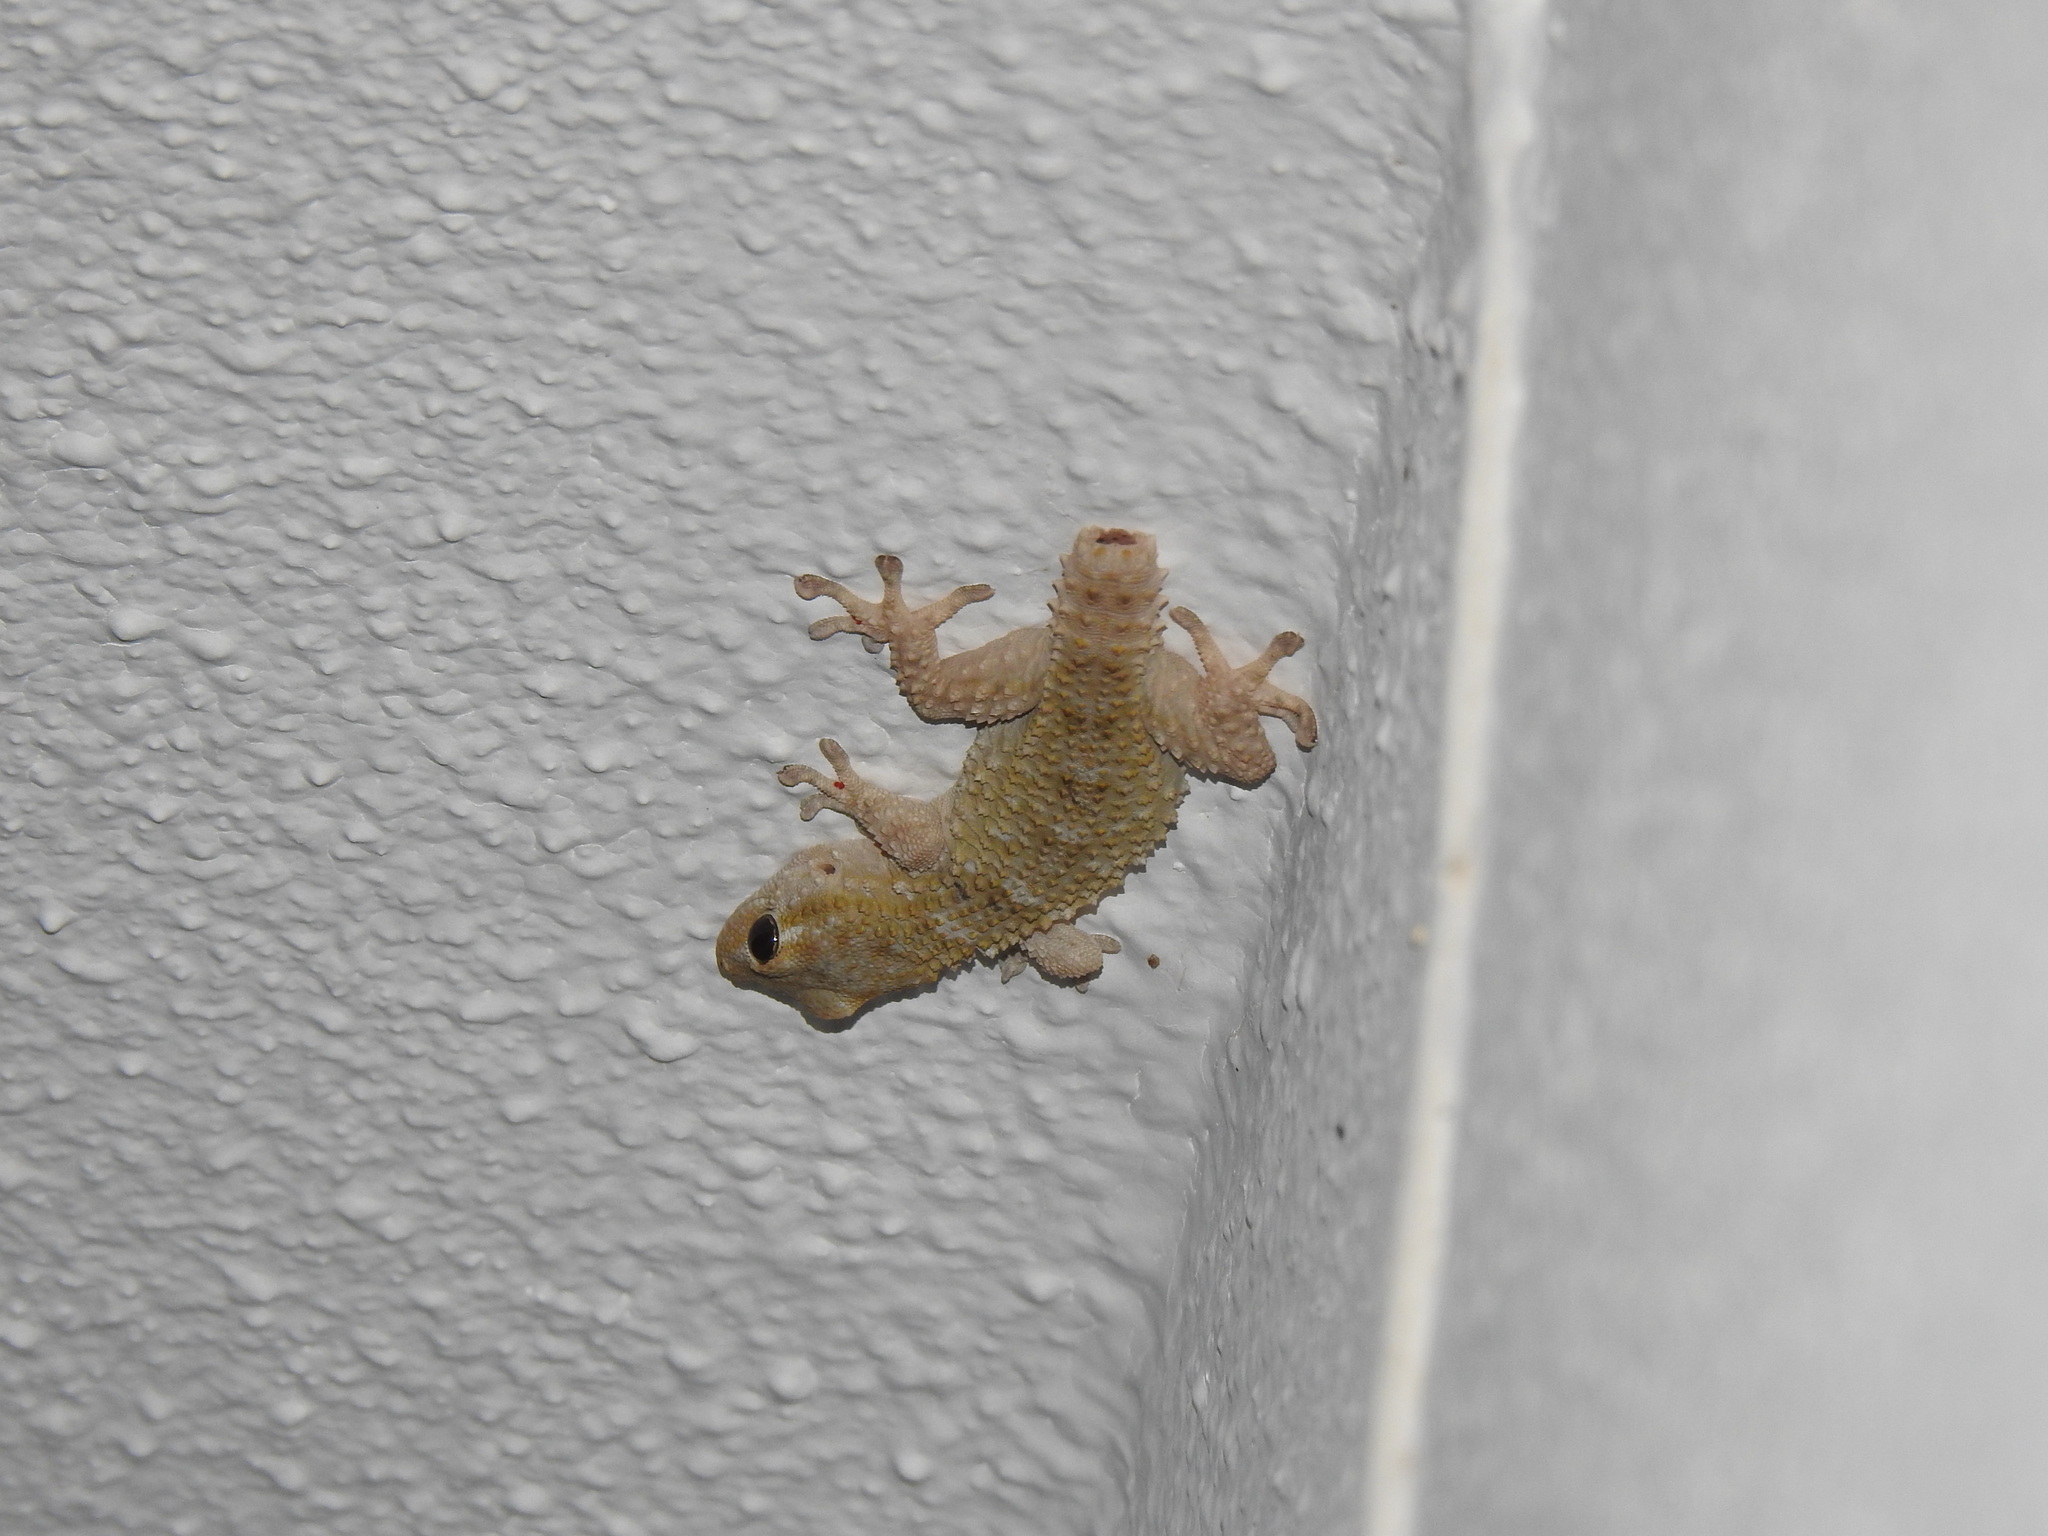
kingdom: Animalia
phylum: Chordata
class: Squamata
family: Phyllodactylidae
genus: Tarentola
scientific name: Tarentola mauritanica
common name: Moorish gecko
